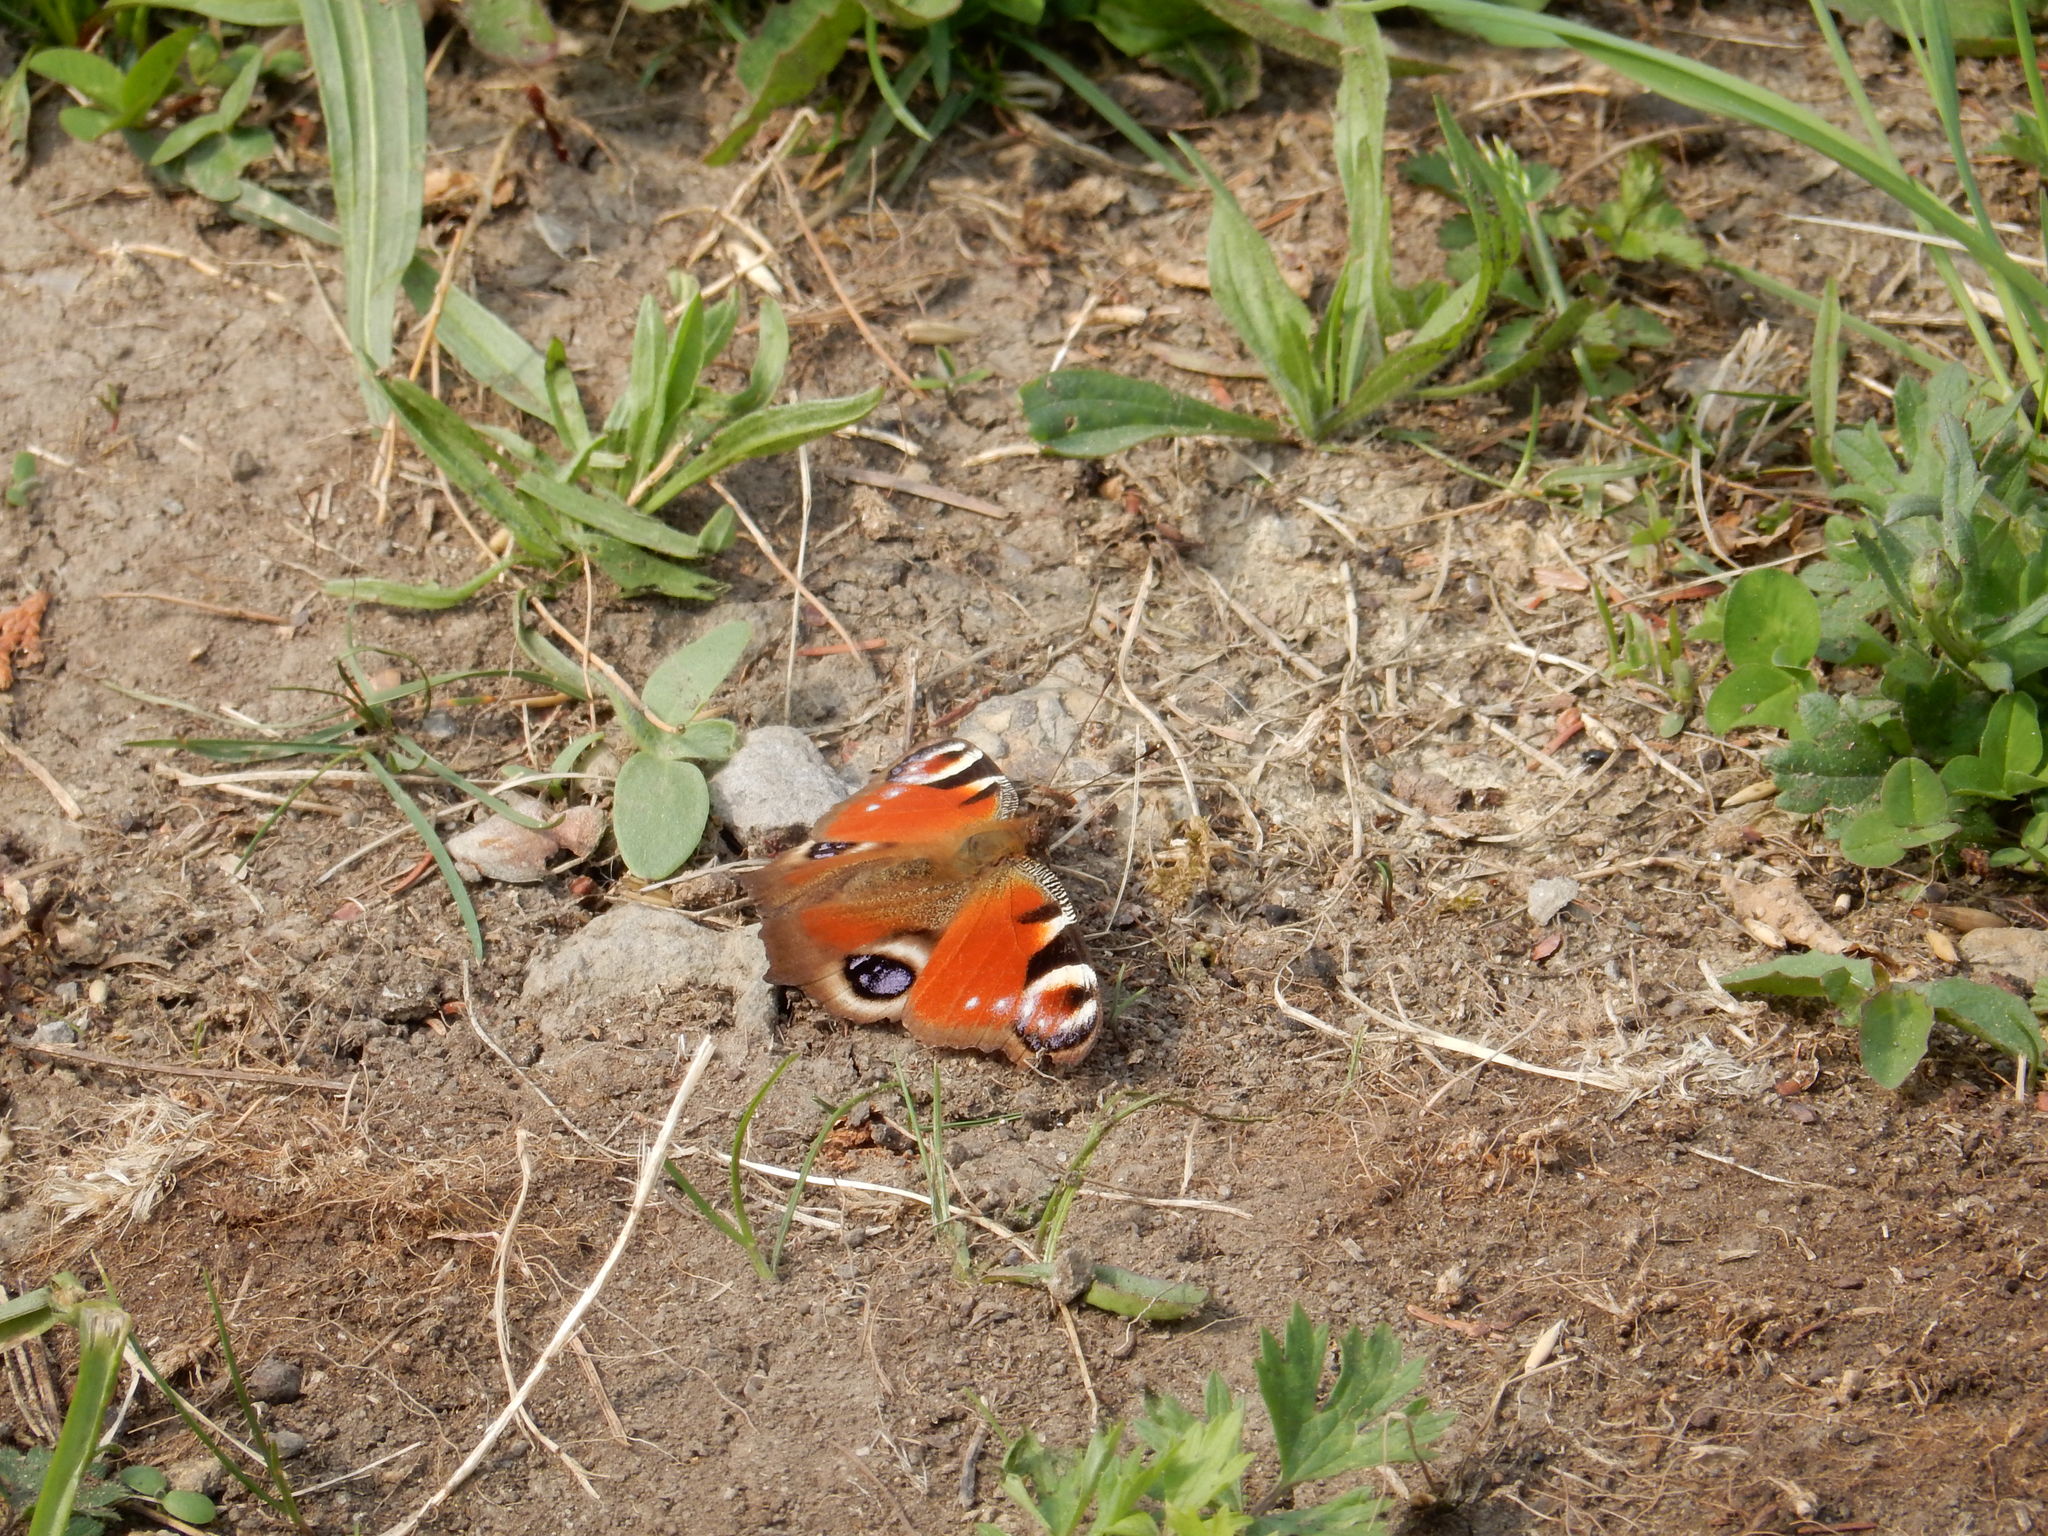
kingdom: Animalia
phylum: Arthropoda
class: Insecta
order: Lepidoptera
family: Nymphalidae
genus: Aglais
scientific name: Aglais io
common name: Peacock
